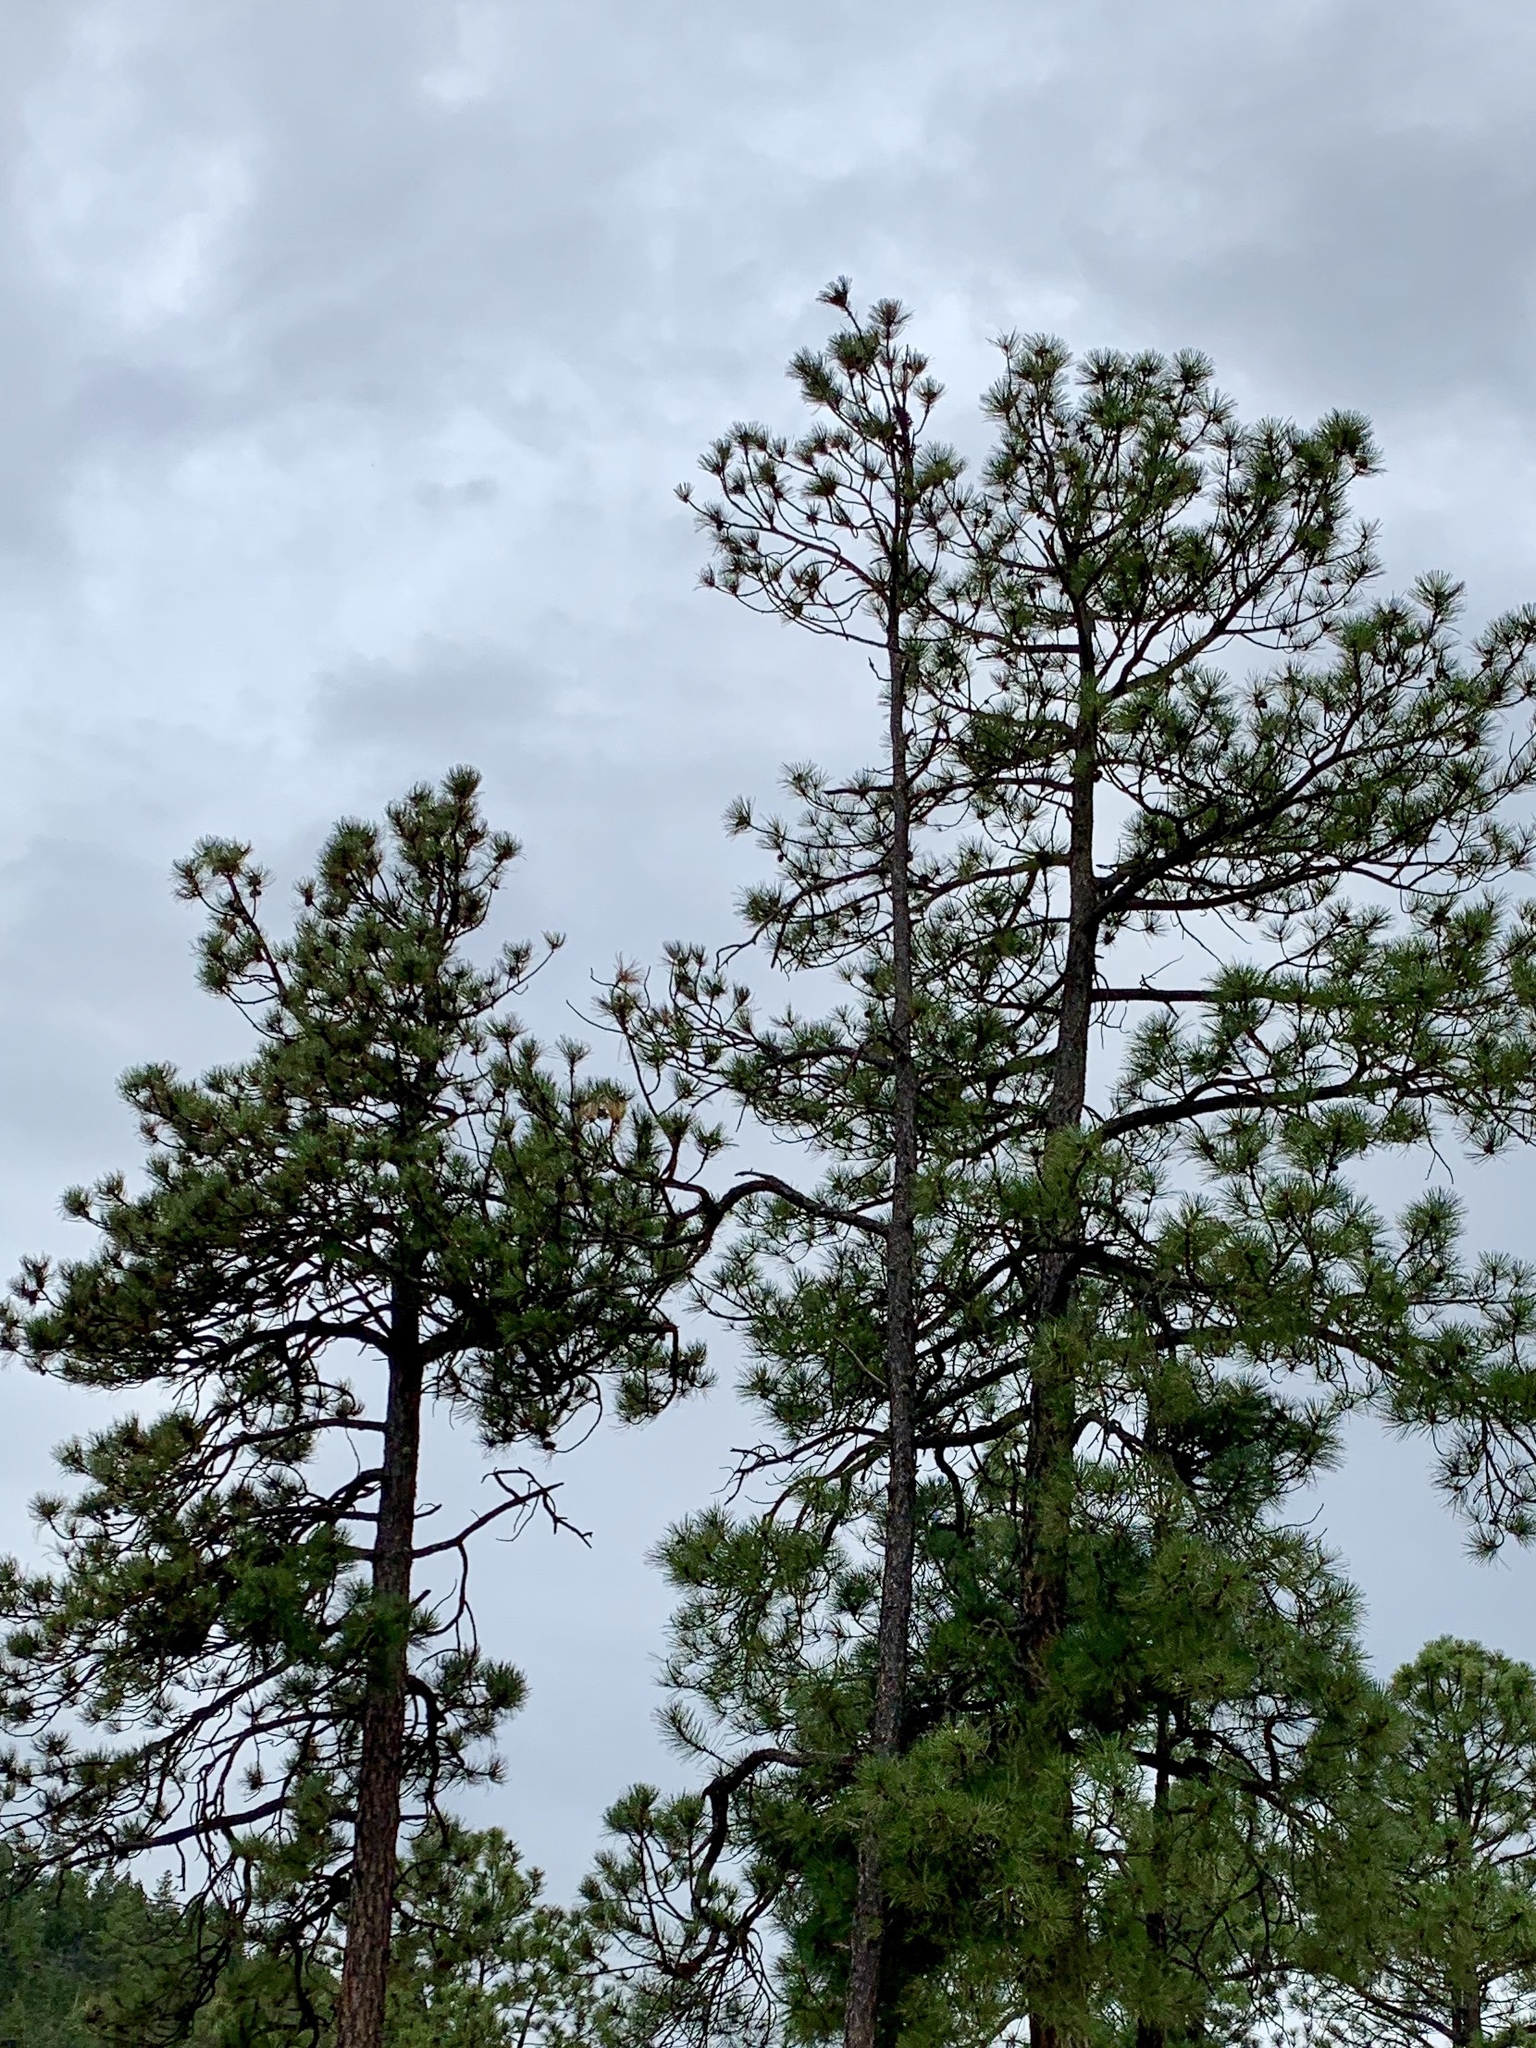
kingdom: Plantae
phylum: Tracheophyta
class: Pinopsida
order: Pinales
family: Pinaceae
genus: Pinus
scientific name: Pinus ponderosa
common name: Western yellow-pine
